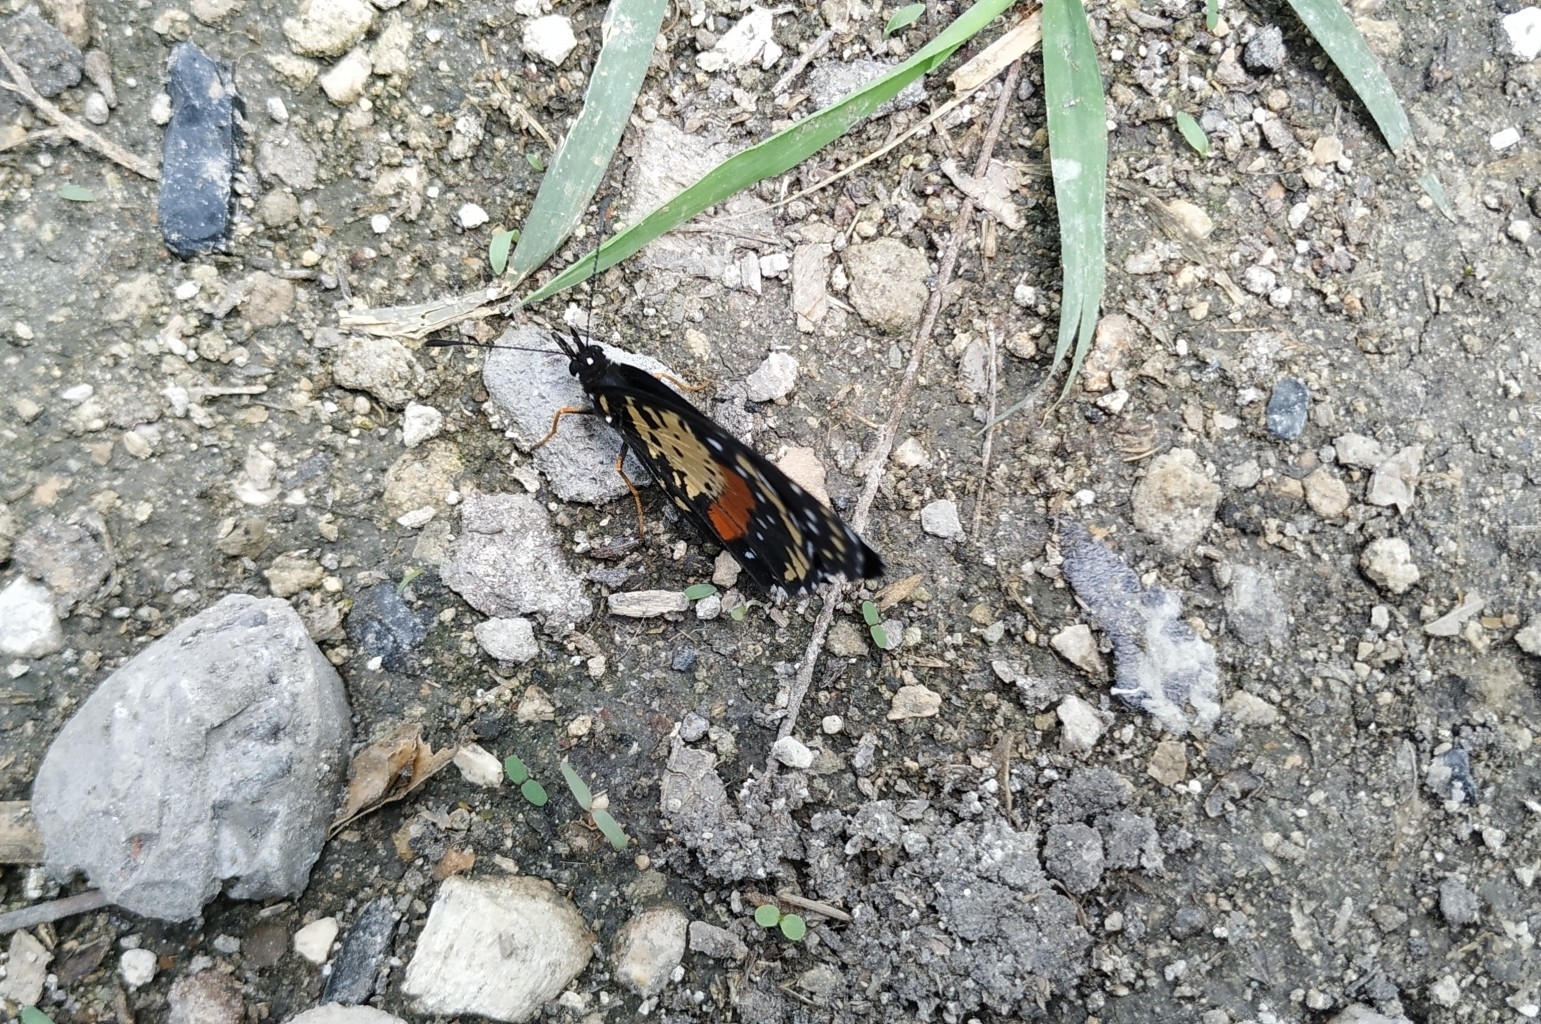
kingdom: Animalia
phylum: Arthropoda
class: Insecta
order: Lepidoptera
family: Nymphalidae
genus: Chlosyne
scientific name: Chlosyne janais
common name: Crimson patch
